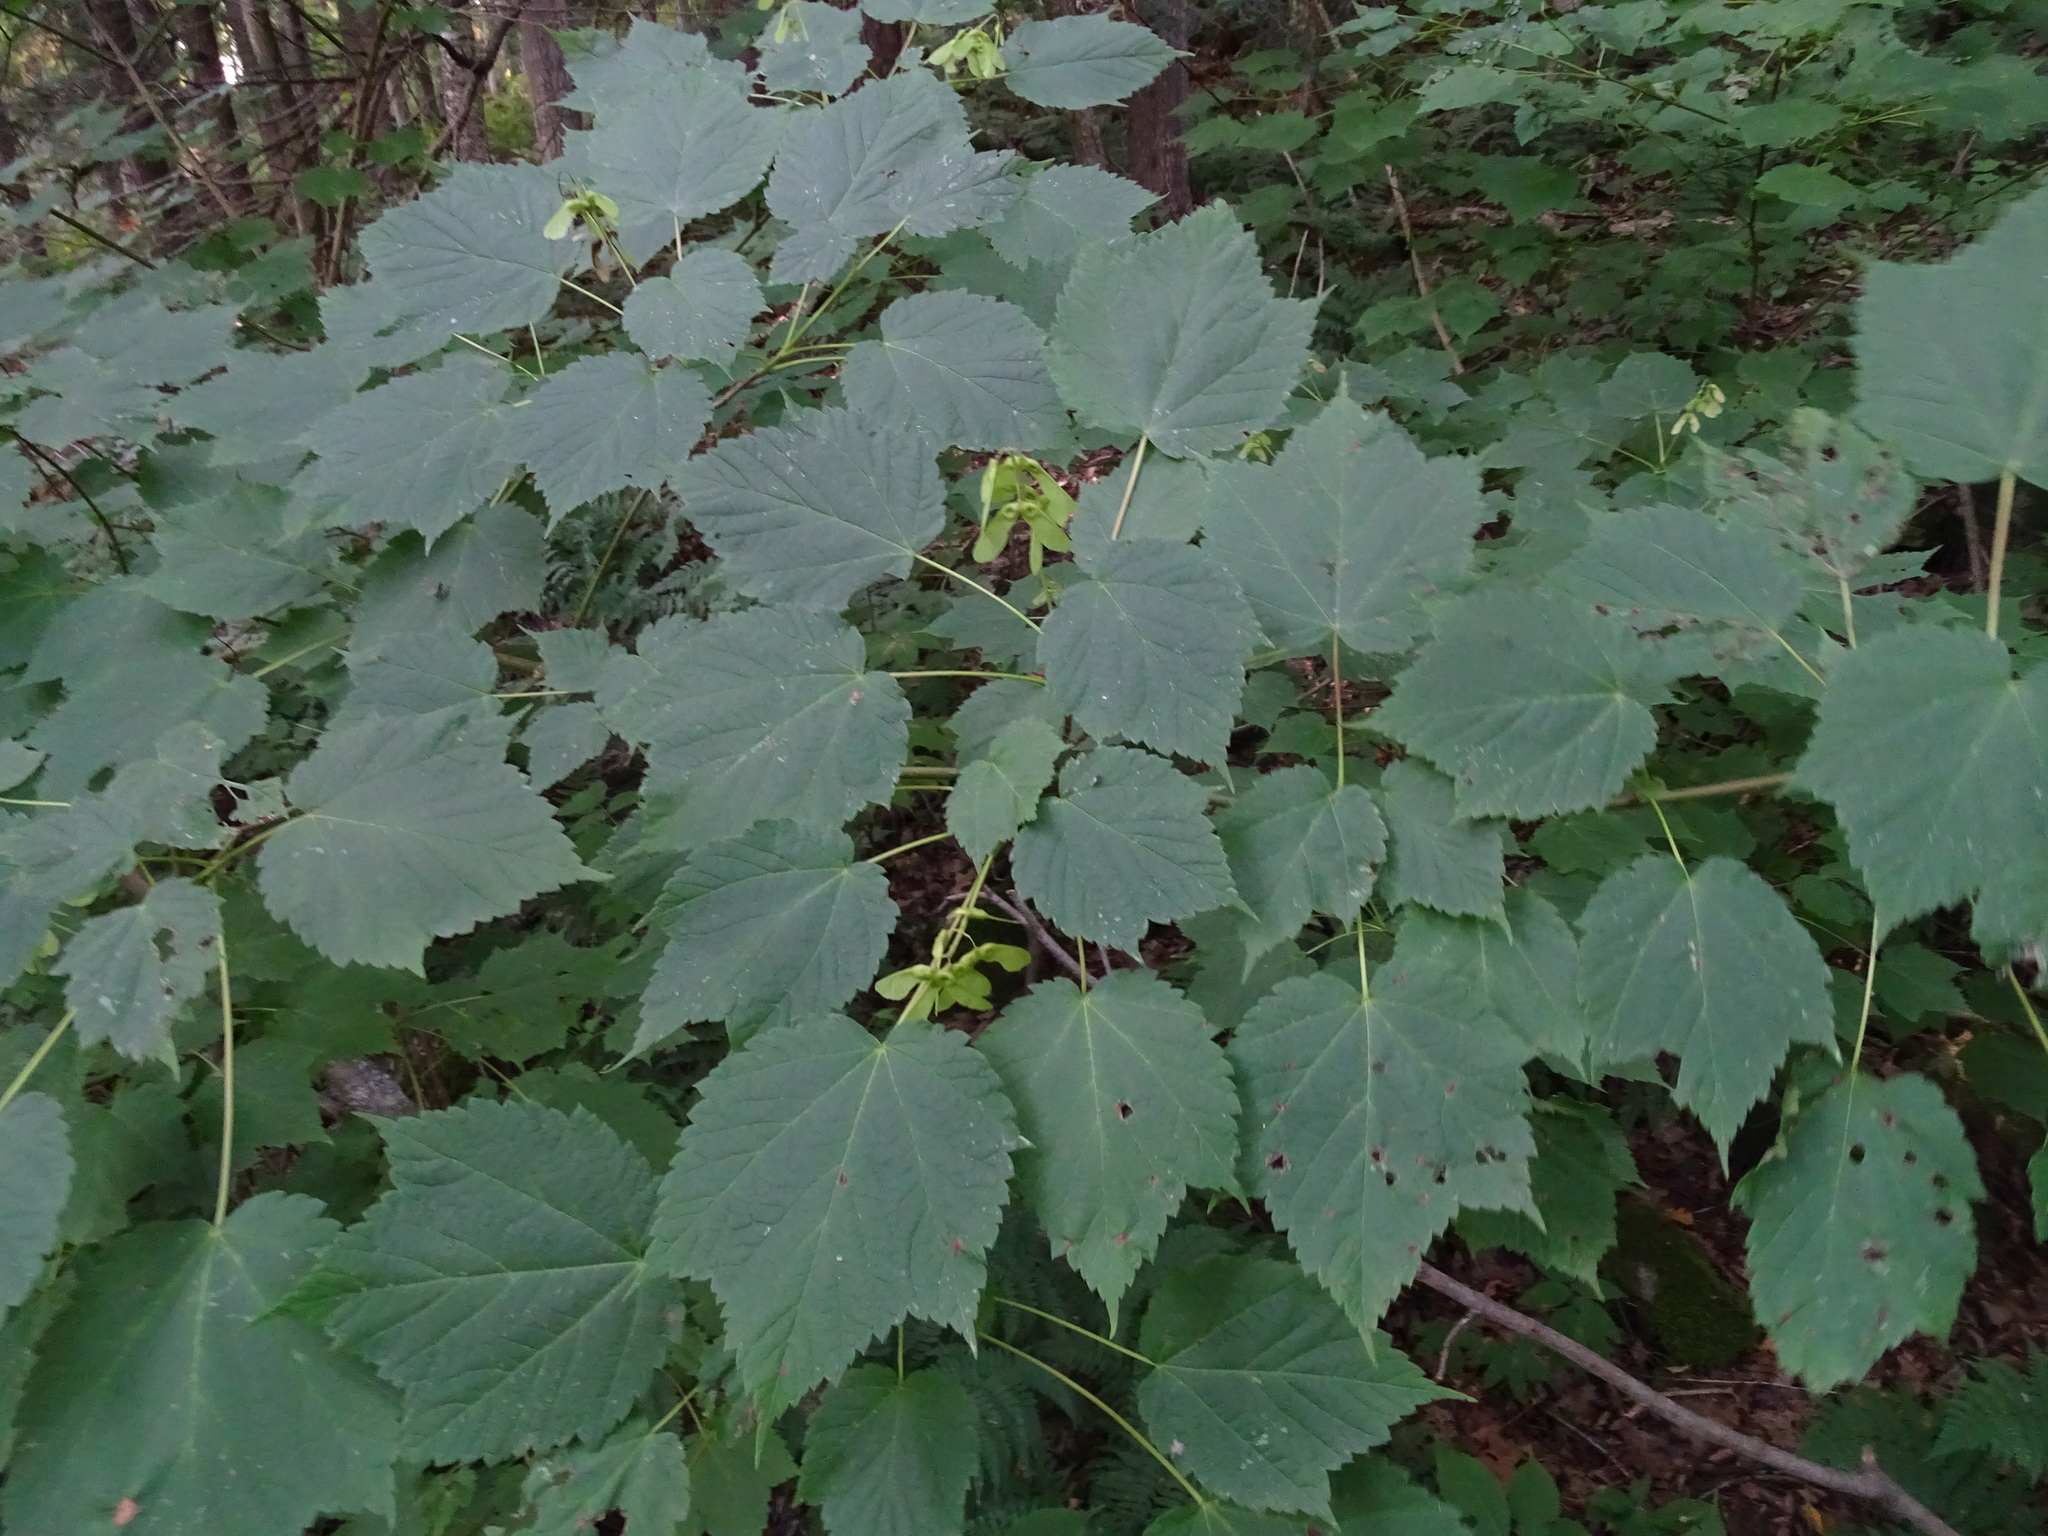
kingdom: Plantae
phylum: Tracheophyta
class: Magnoliopsida
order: Sapindales
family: Sapindaceae
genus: Acer
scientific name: Acer spicatum
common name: Mountain maple
